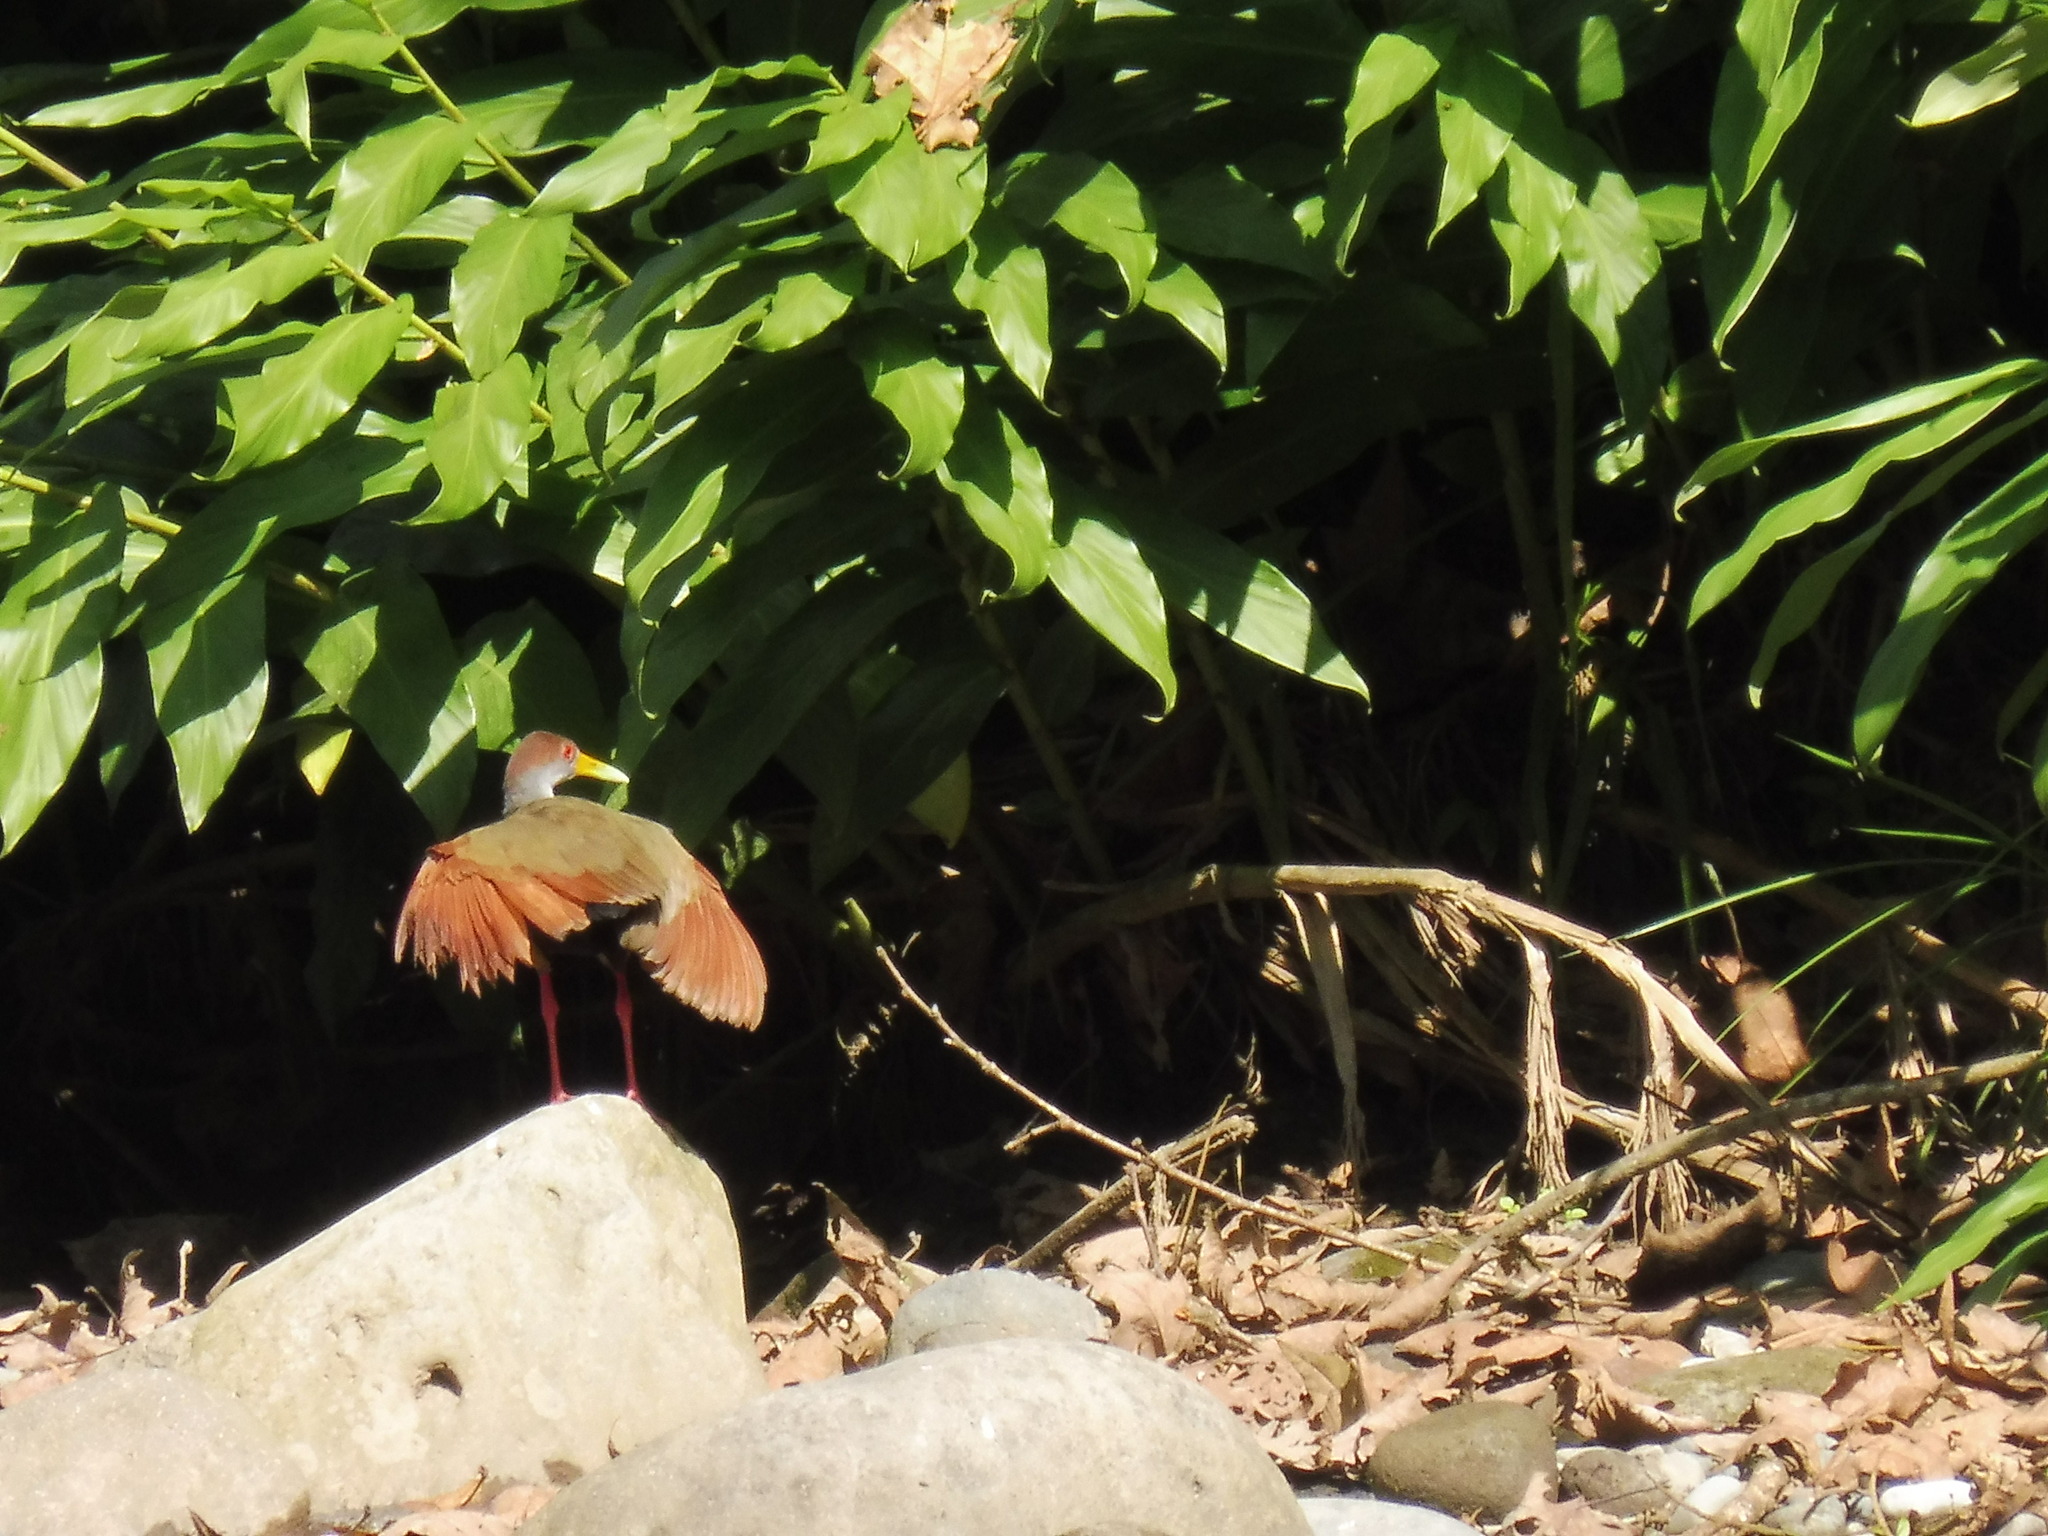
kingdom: Animalia
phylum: Chordata
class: Aves
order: Gruiformes
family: Rallidae
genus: Aramides
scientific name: Aramides albiventris
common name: Russet-naped wood-rail
